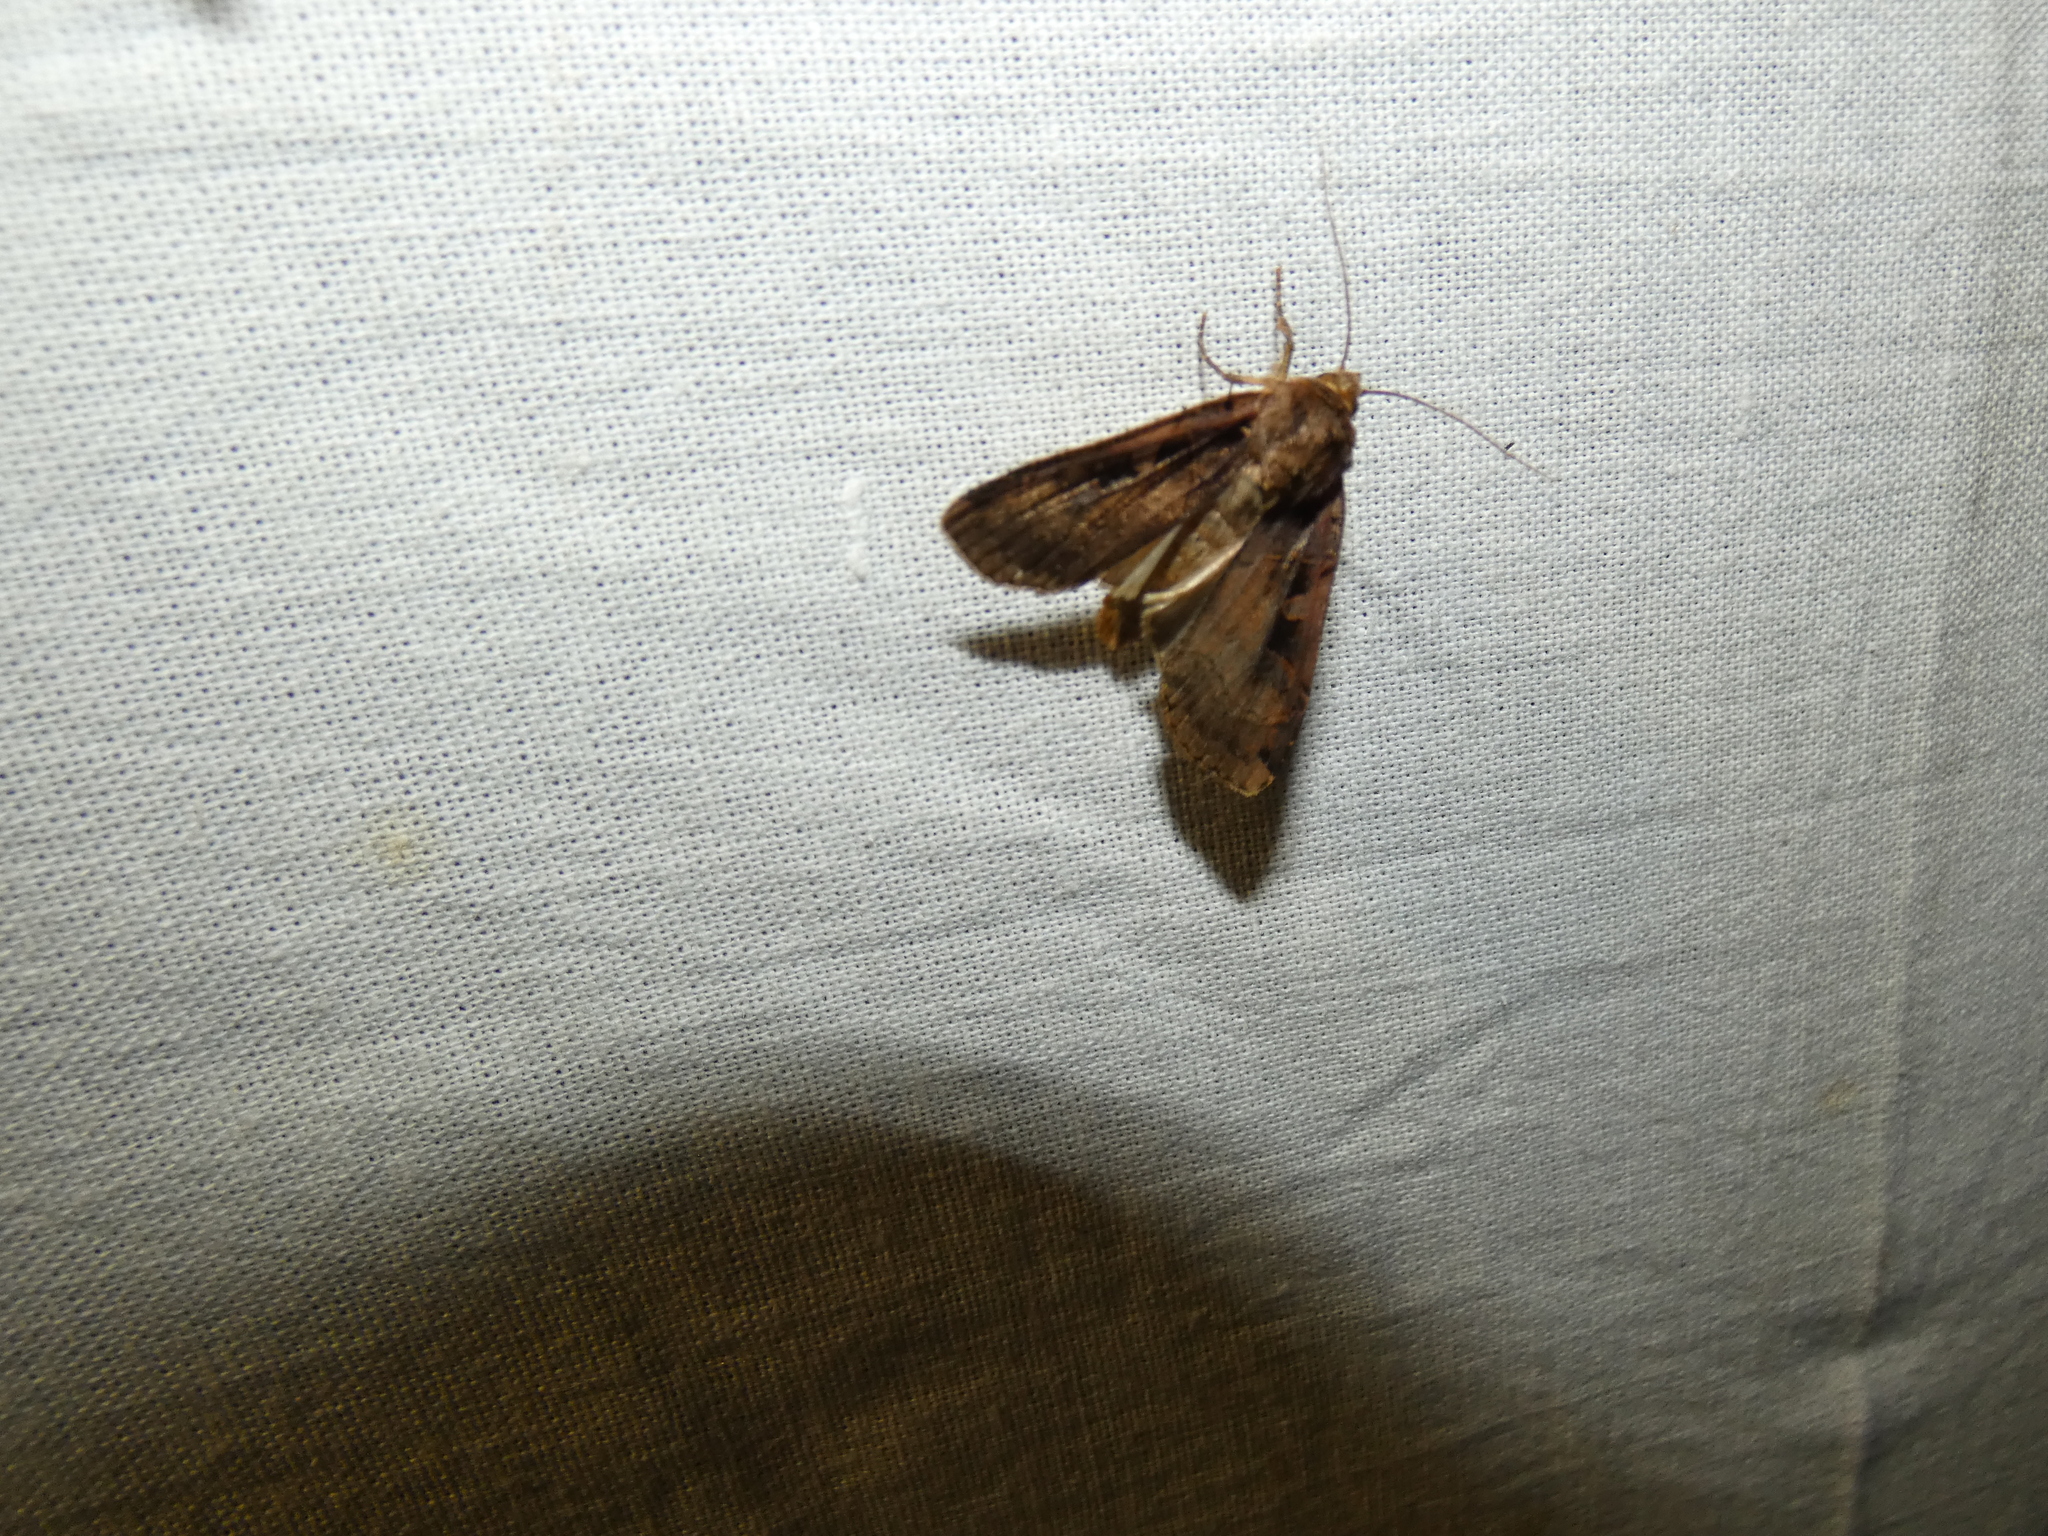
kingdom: Animalia
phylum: Arthropoda
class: Insecta
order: Lepidoptera
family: Noctuidae
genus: Xestia
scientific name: Xestia ditrapezium
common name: Triple-spotted clay
